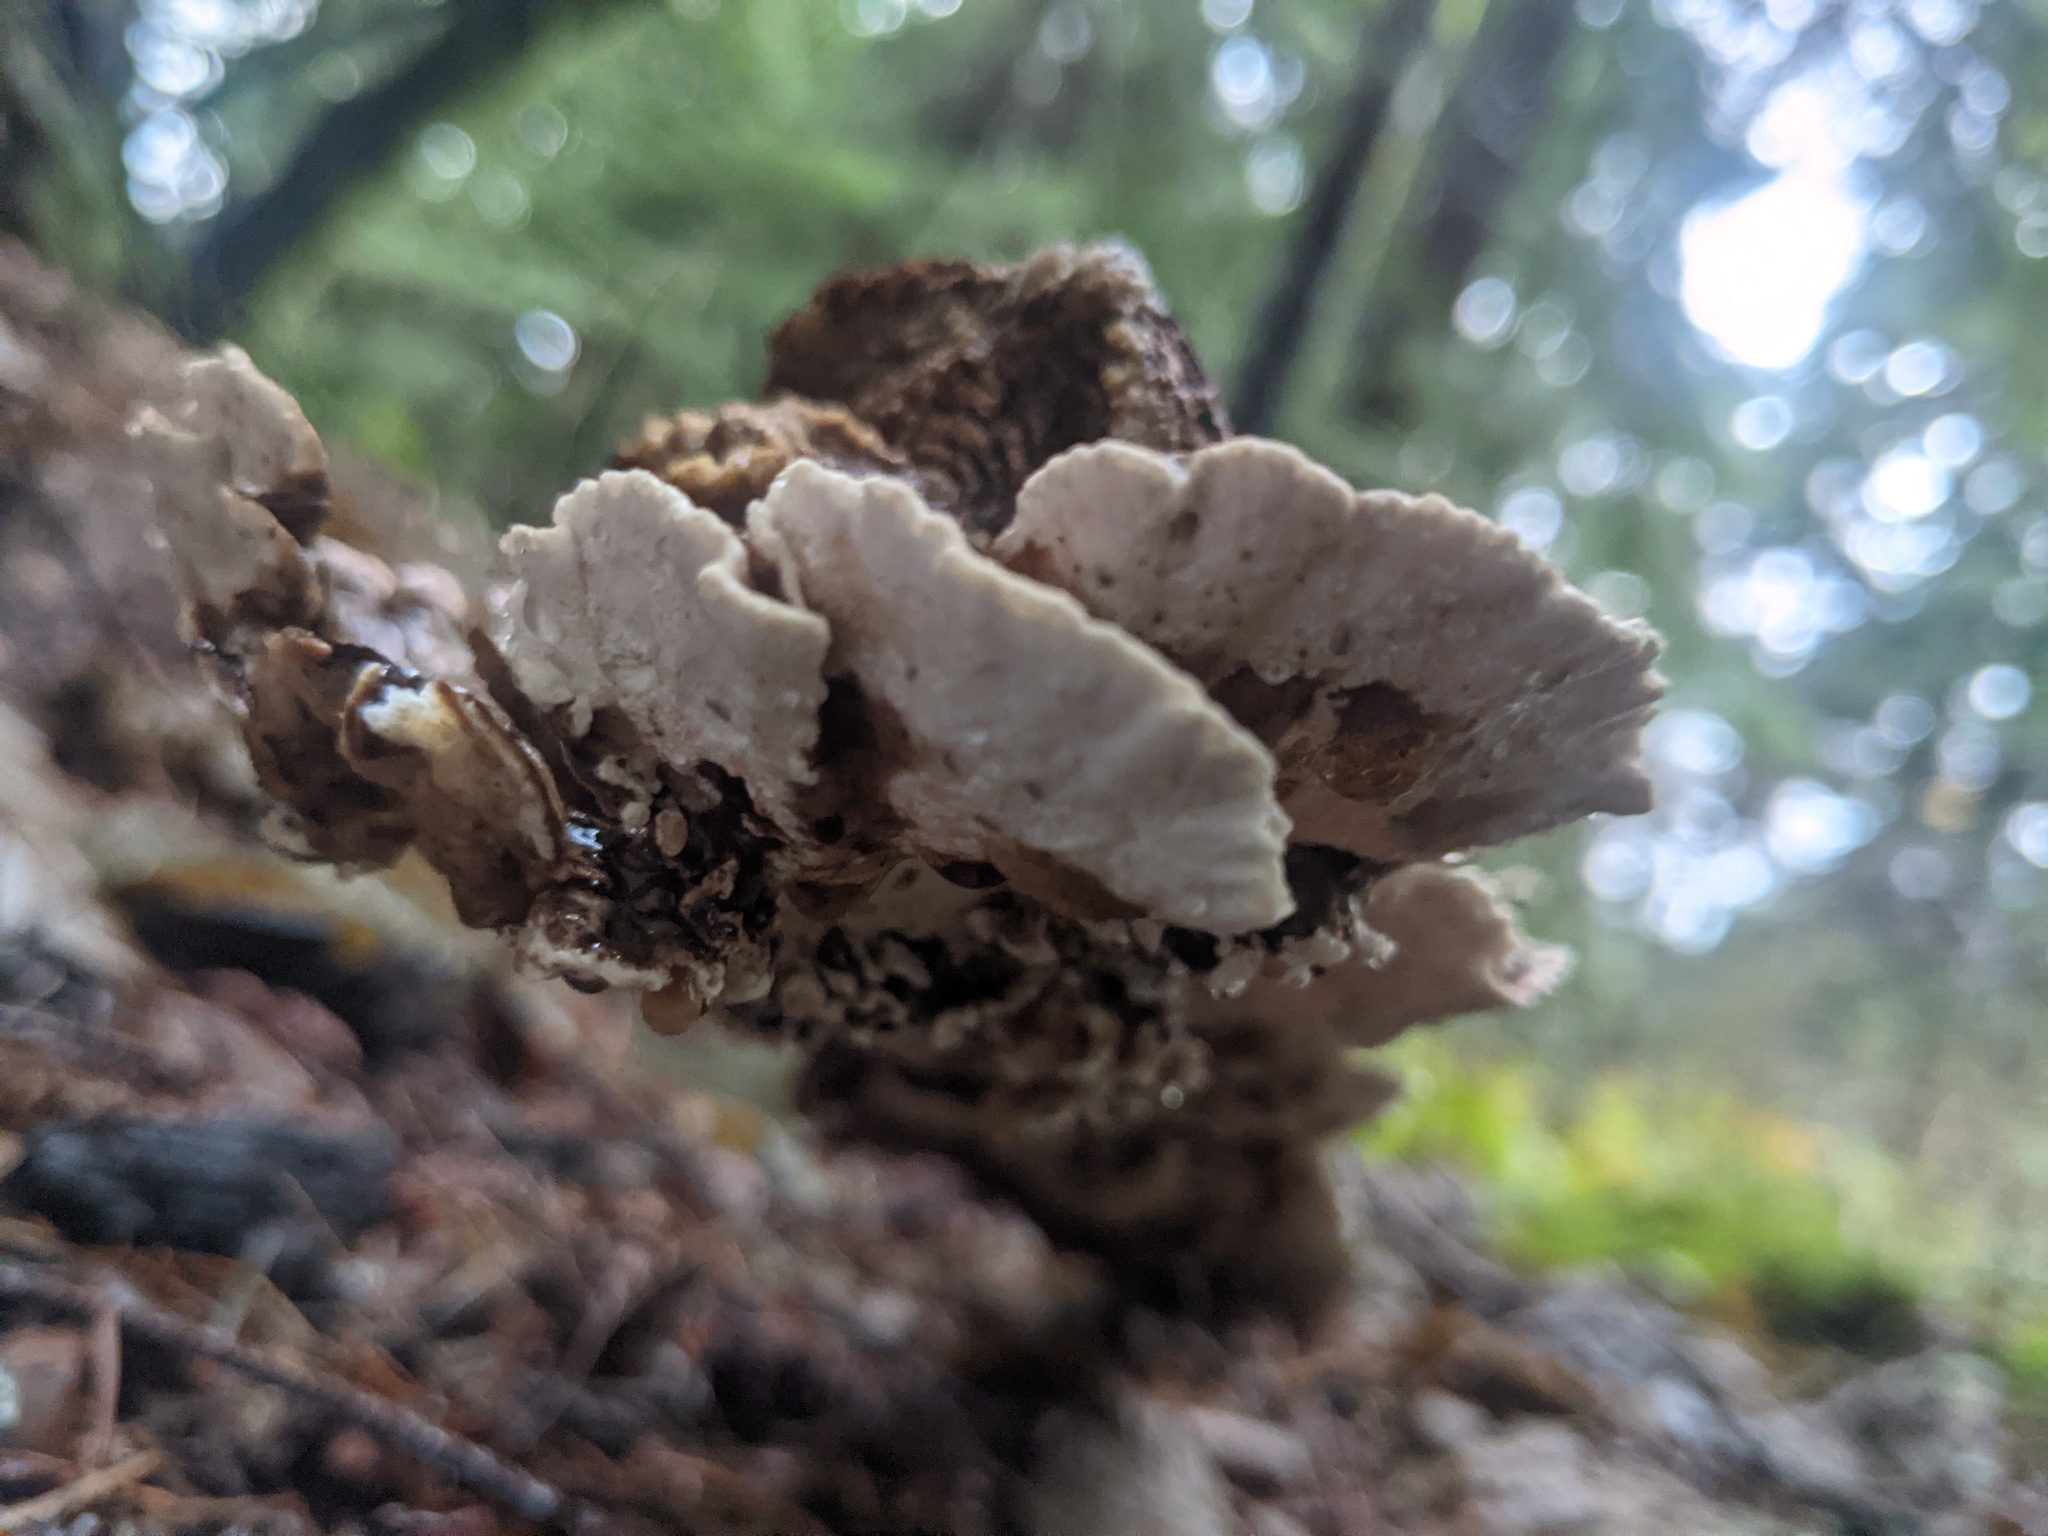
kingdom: Fungi
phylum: Basidiomycota
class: Agaricomycetes
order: Polyporales
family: Polyporaceae
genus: Trametes
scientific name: Trametes versicolor
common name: Turkeytail
